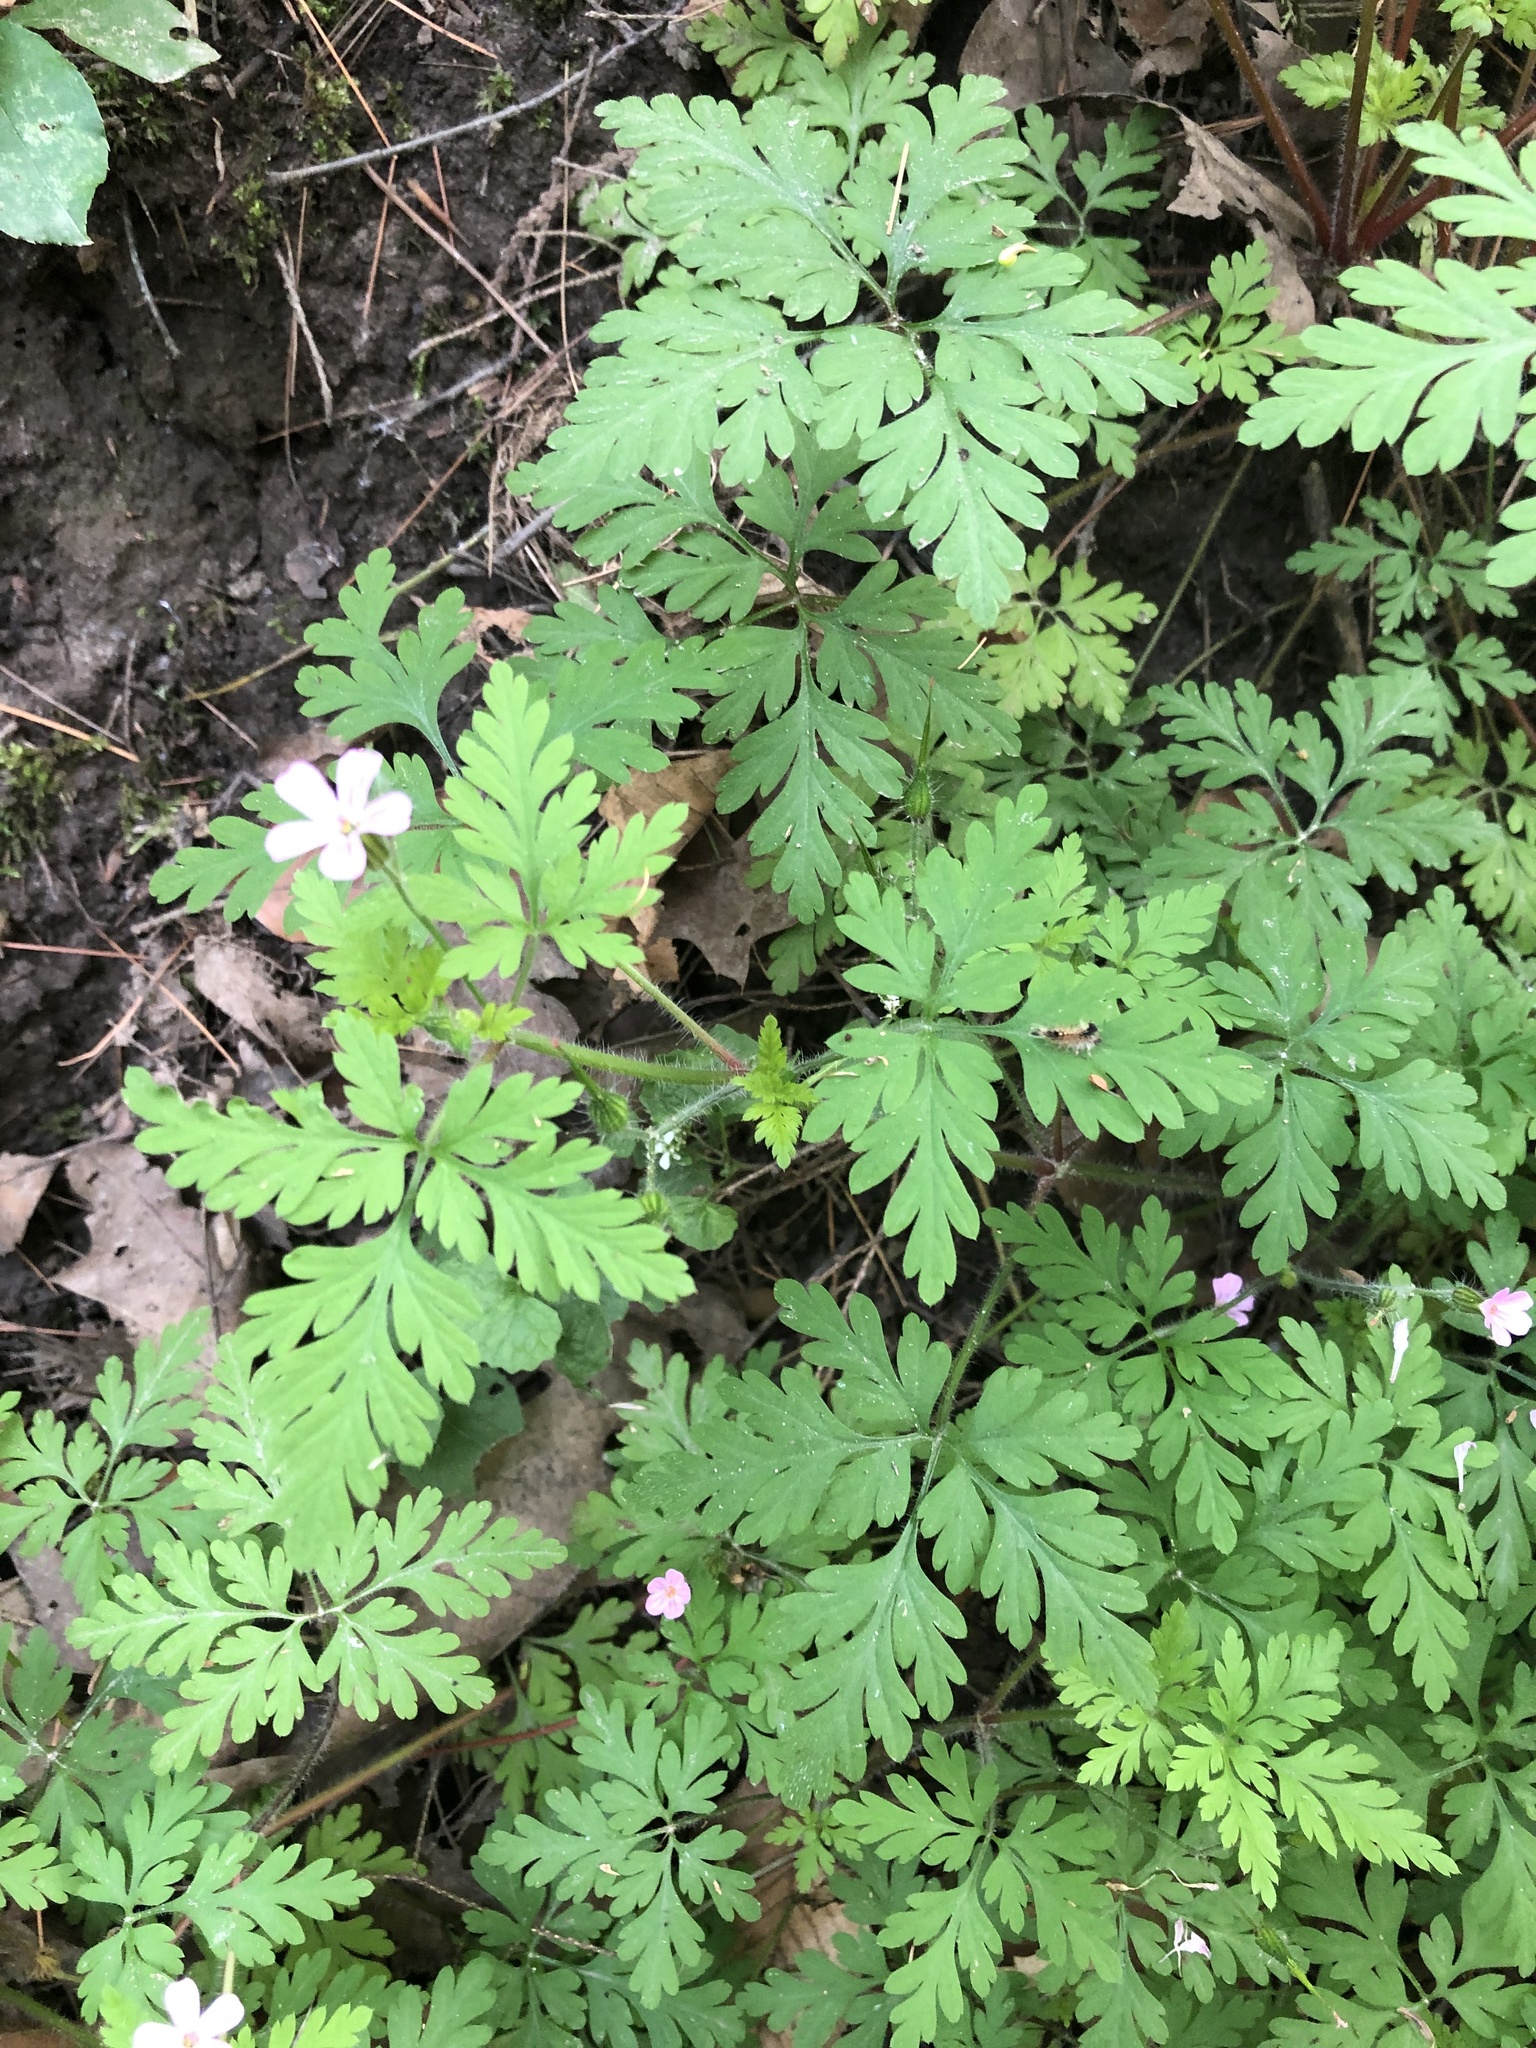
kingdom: Plantae
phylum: Tracheophyta
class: Magnoliopsida
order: Geraniales
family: Geraniaceae
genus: Geranium
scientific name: Geranium robertianum
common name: Herb-robert
